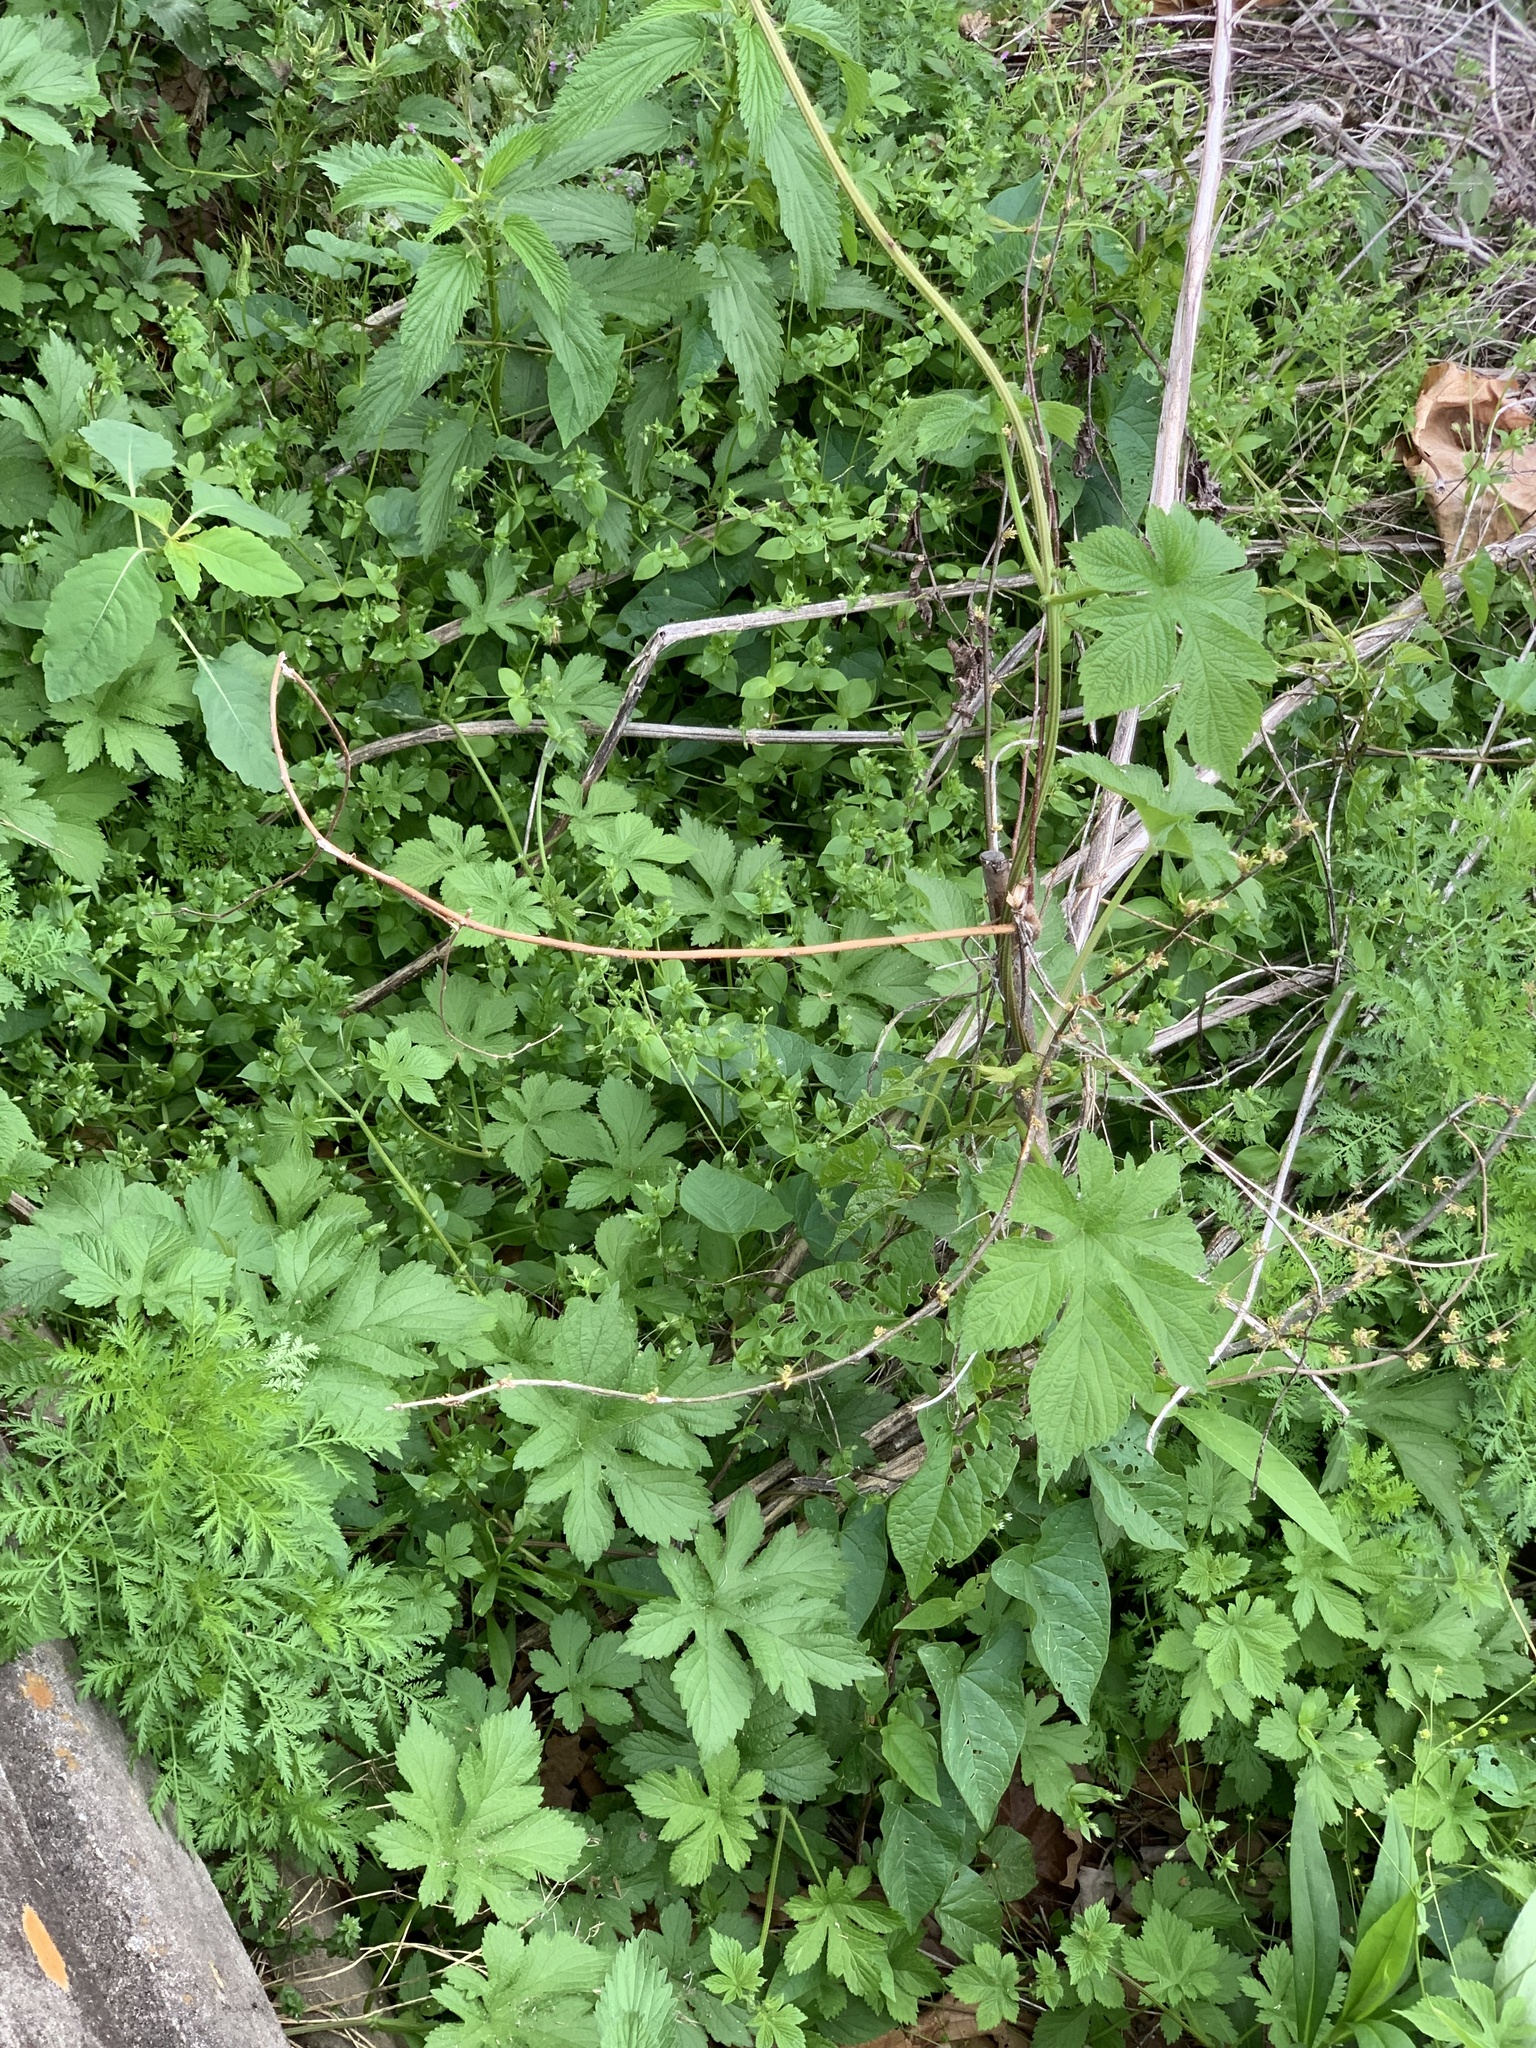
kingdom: Plantae
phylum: Tracheophyta
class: Magnoliopsida
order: Rosales
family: Cannabaceae
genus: Humulus
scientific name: Humulus scandens
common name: Japanese hop
